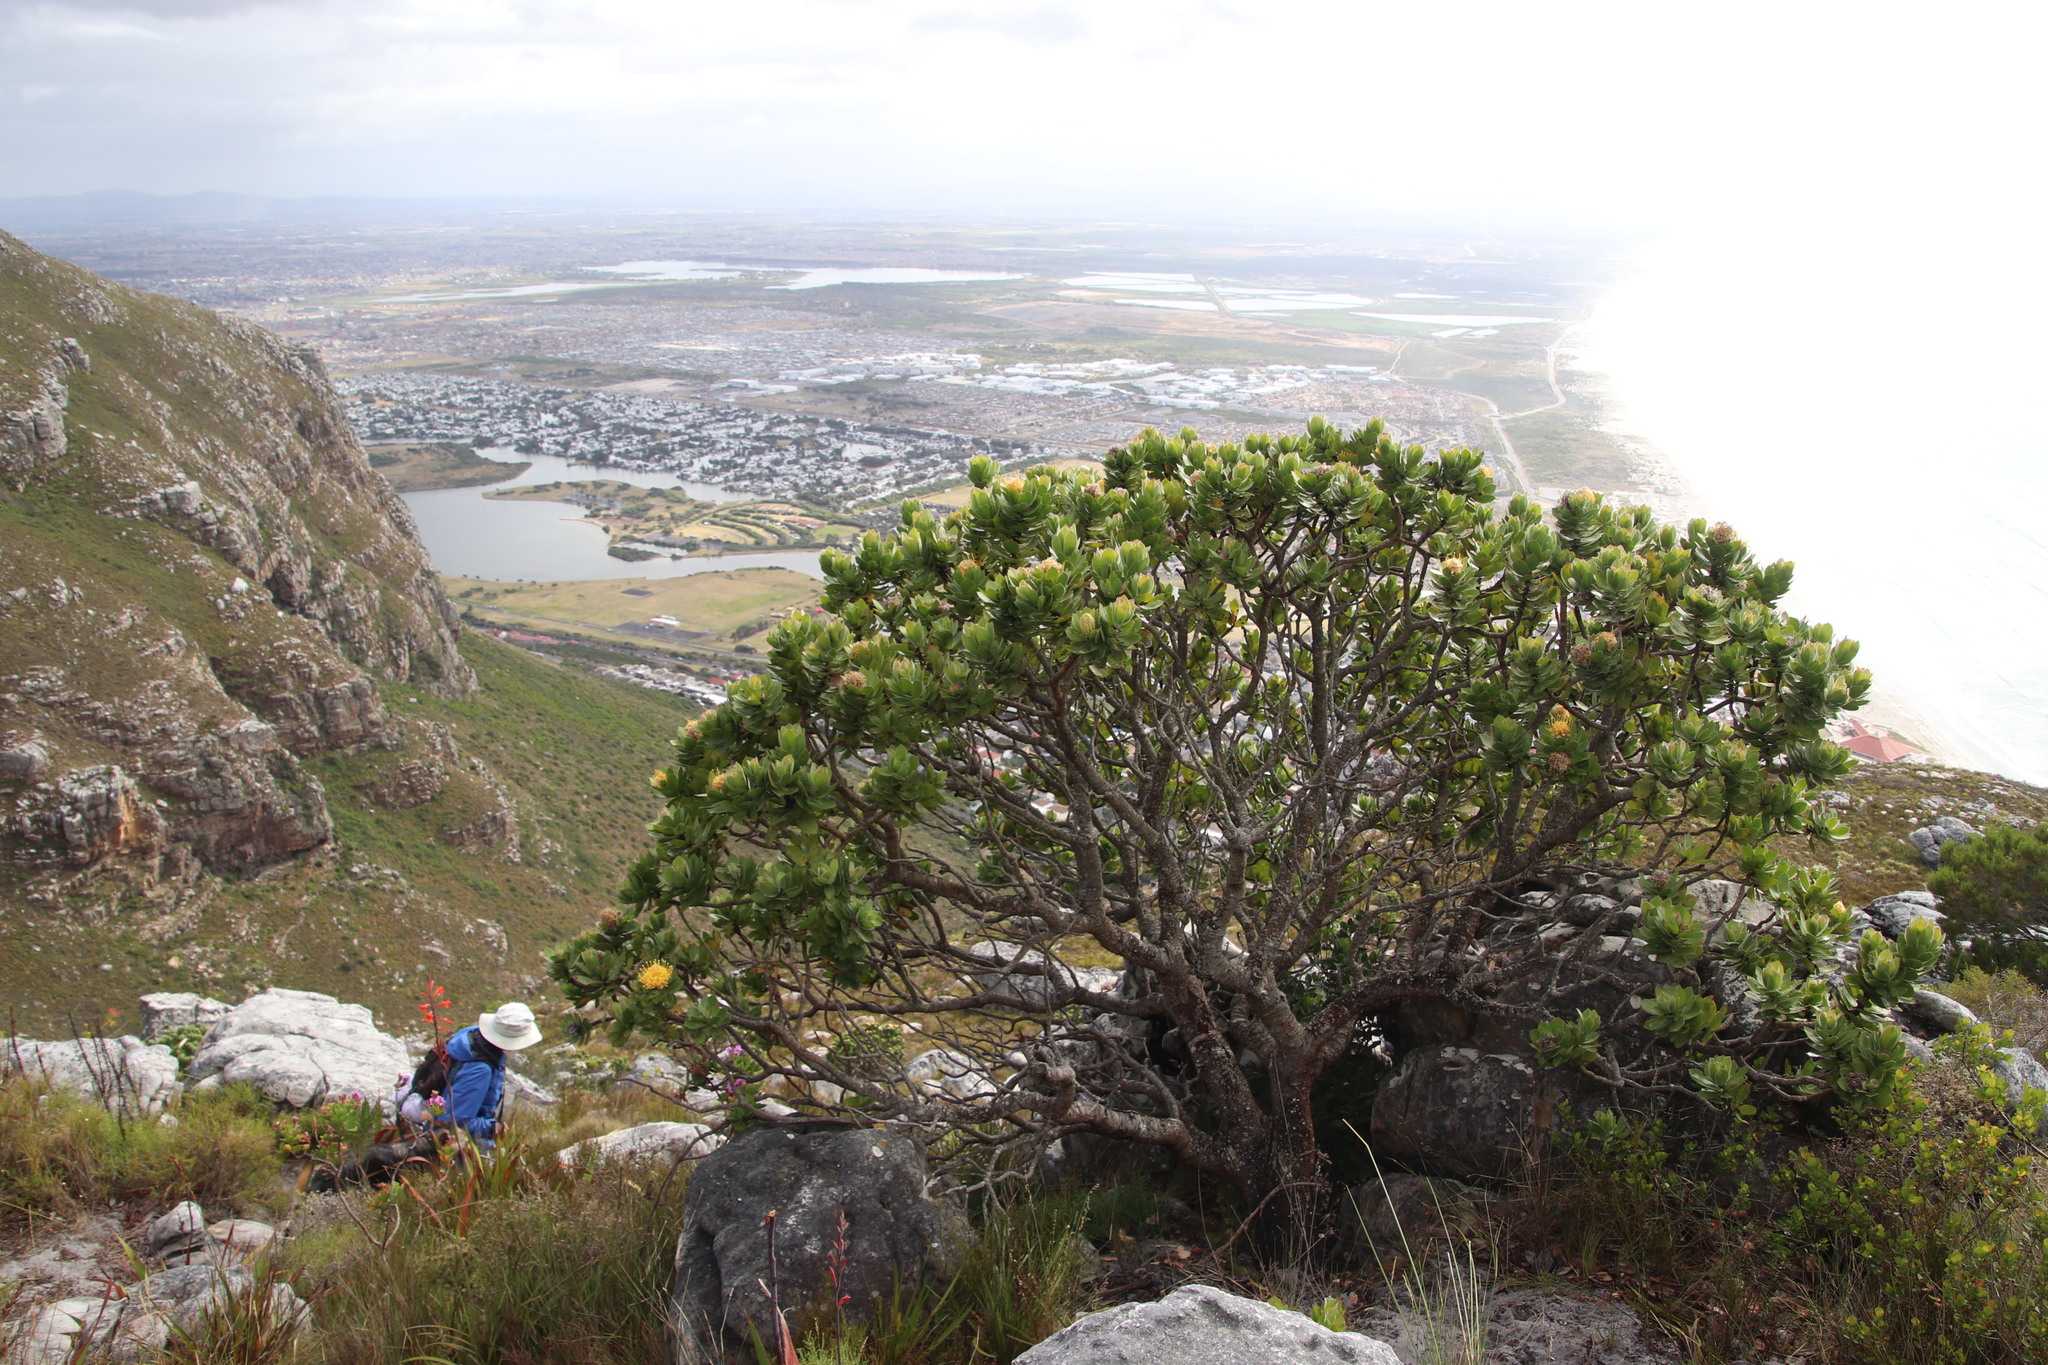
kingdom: Plantae
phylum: Tracheophyta
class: Magnoliopsida
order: Proteales
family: Proteaceae
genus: Leucospermum
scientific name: Leucospermum conocarpodendron
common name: Tree pincushion
